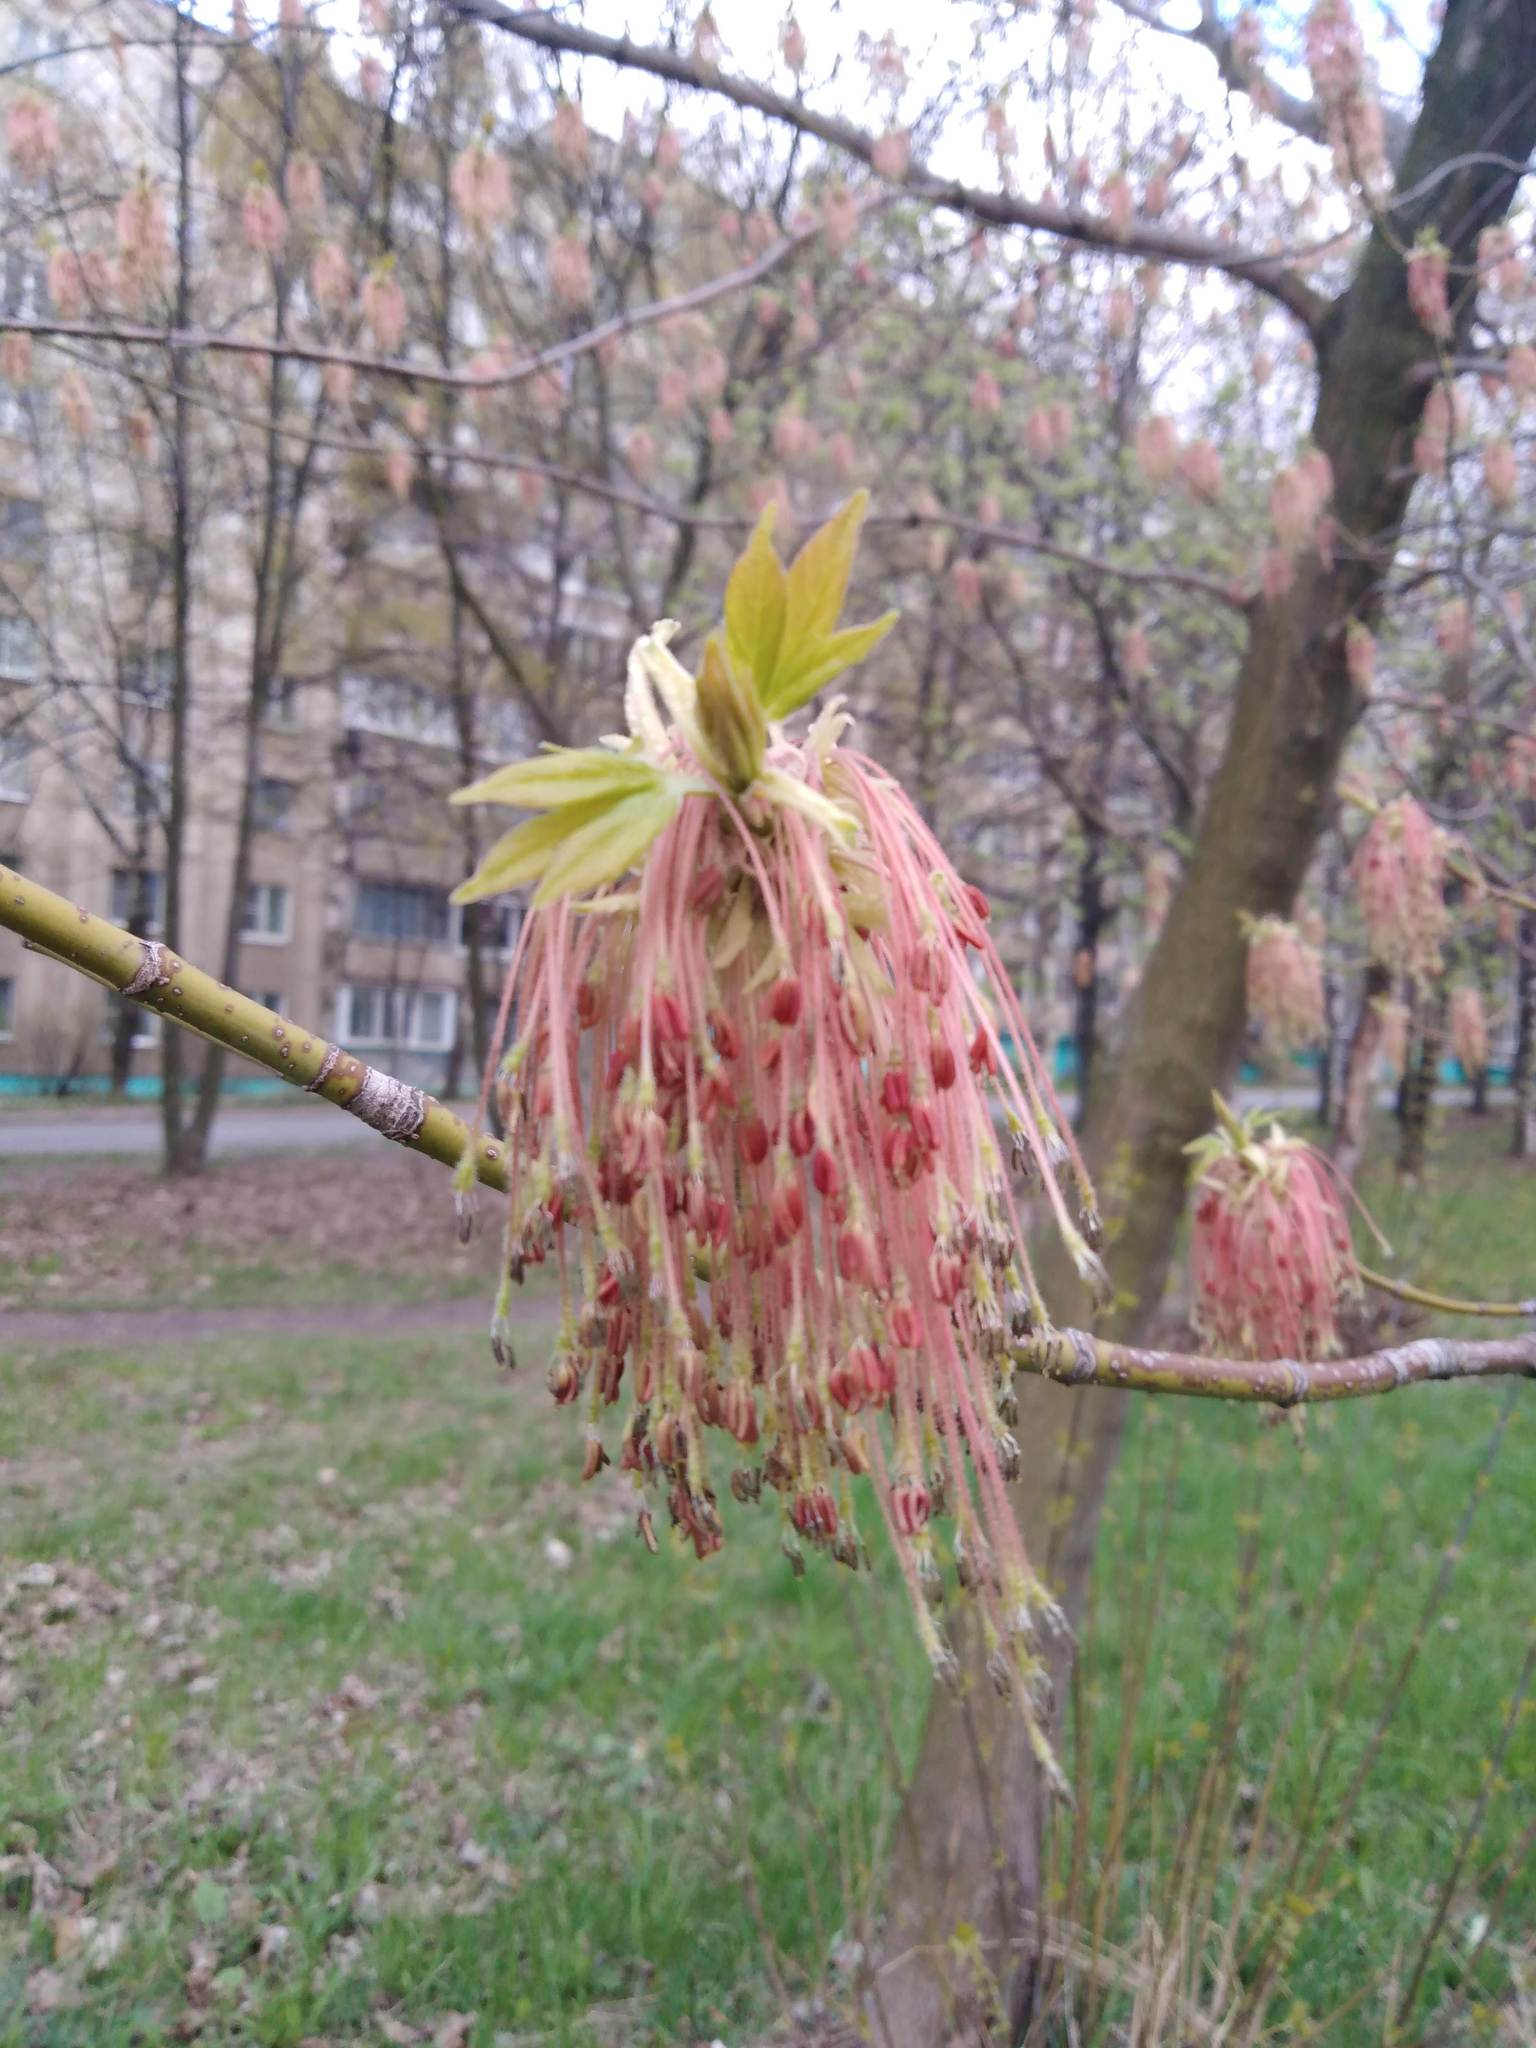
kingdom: Plantae
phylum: Tracheophyta
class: Magnoliopsida
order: Sapindales
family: Sapindaceae
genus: Acer
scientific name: Acer negundo
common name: Ashleaf maple
